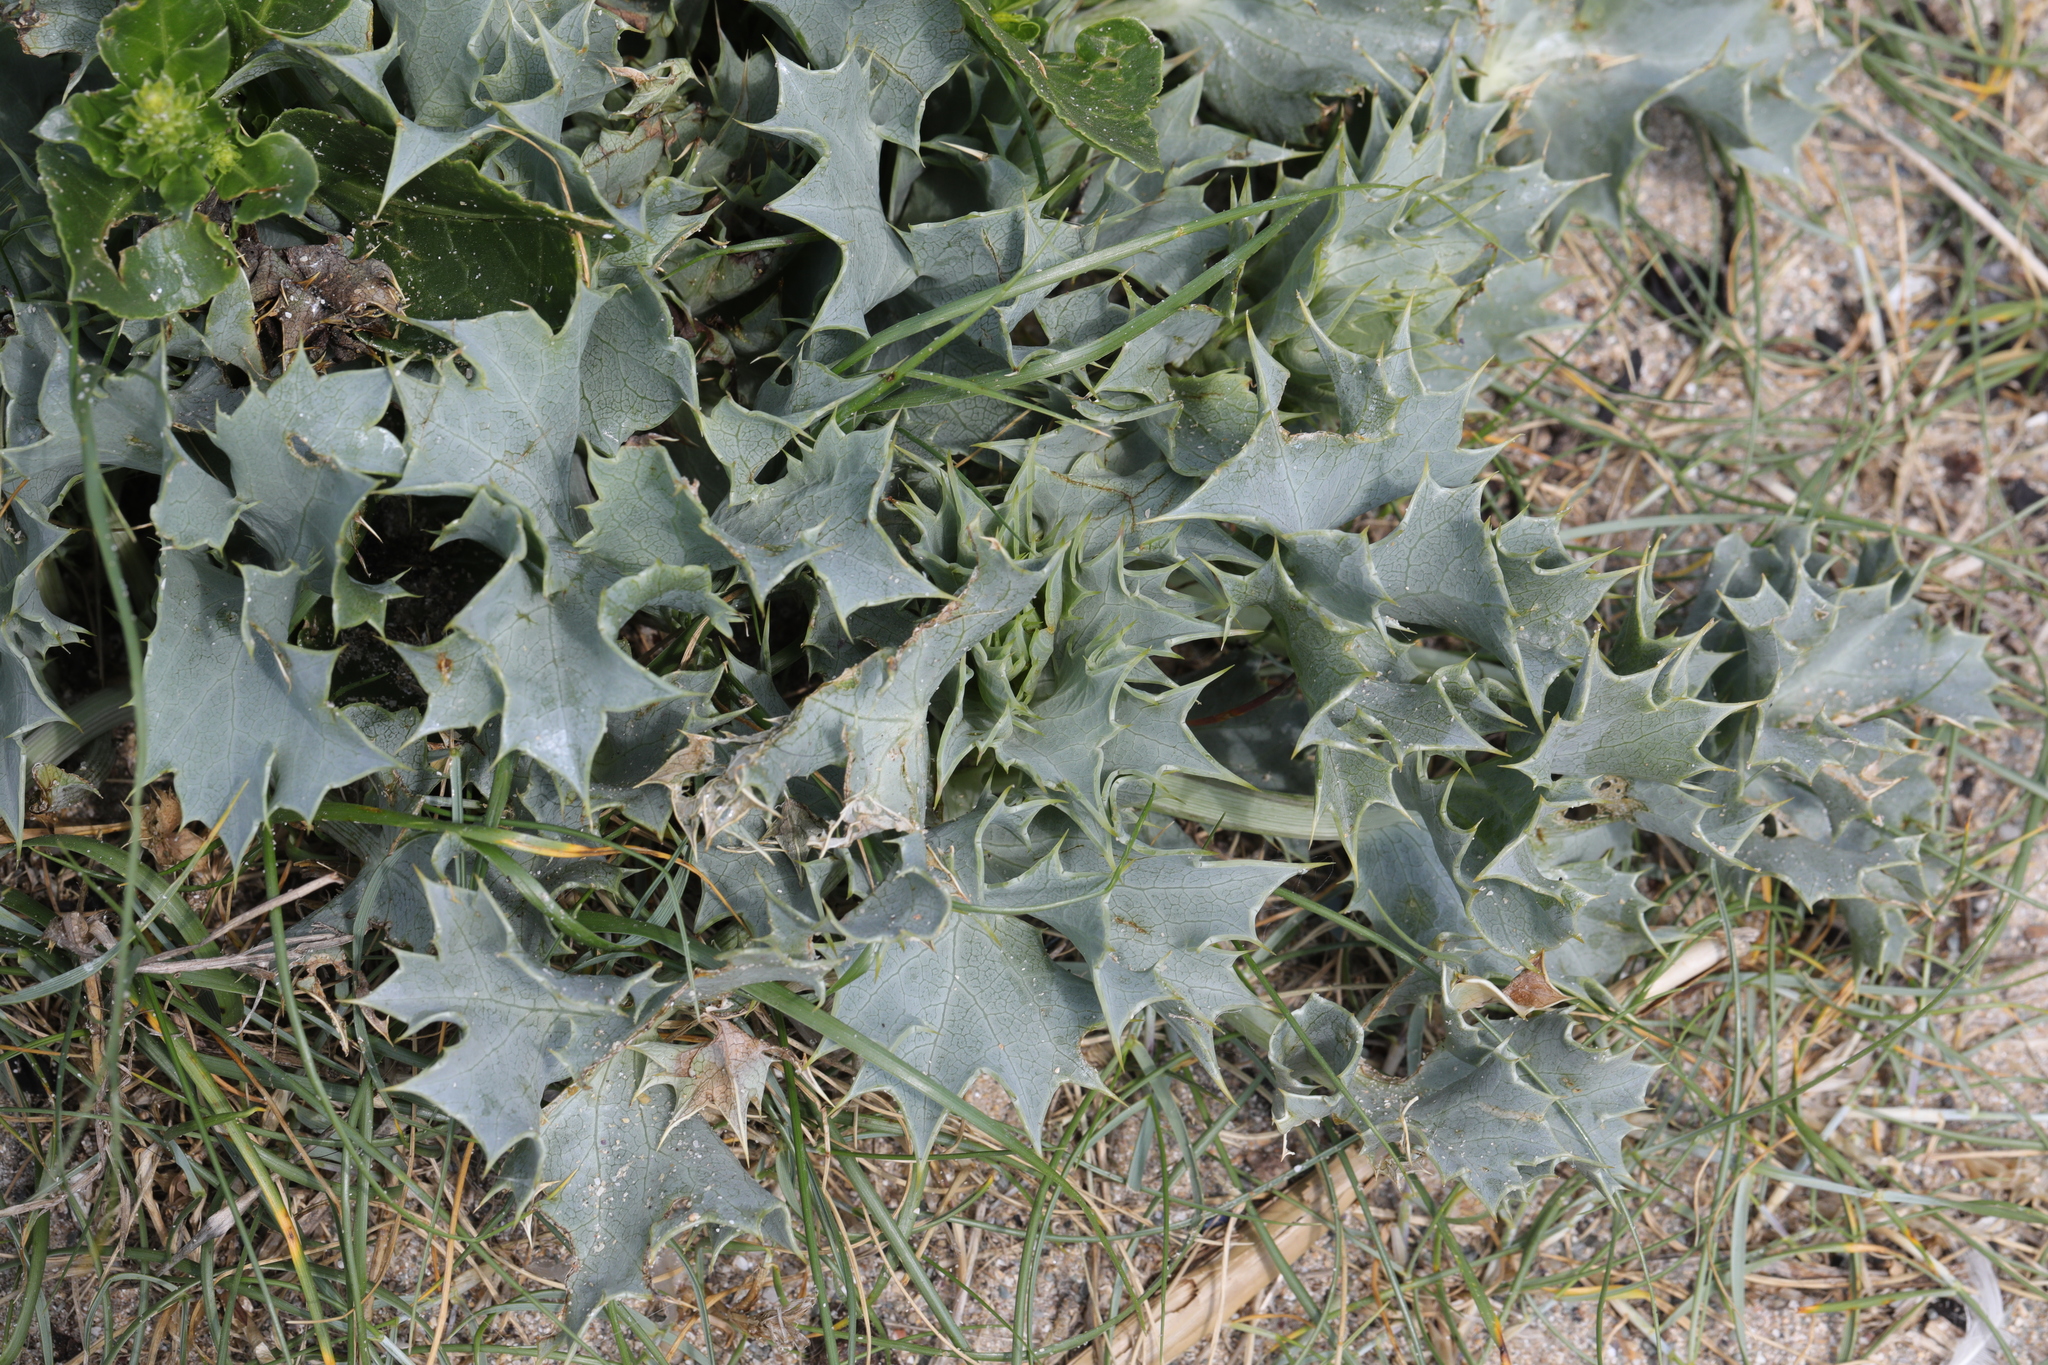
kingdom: Plantae
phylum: Tracheophyta
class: Magnoliopsida
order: Apiales
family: Apiaceae
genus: Eryngium
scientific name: Eryngium maritimum
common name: Sea-holly
